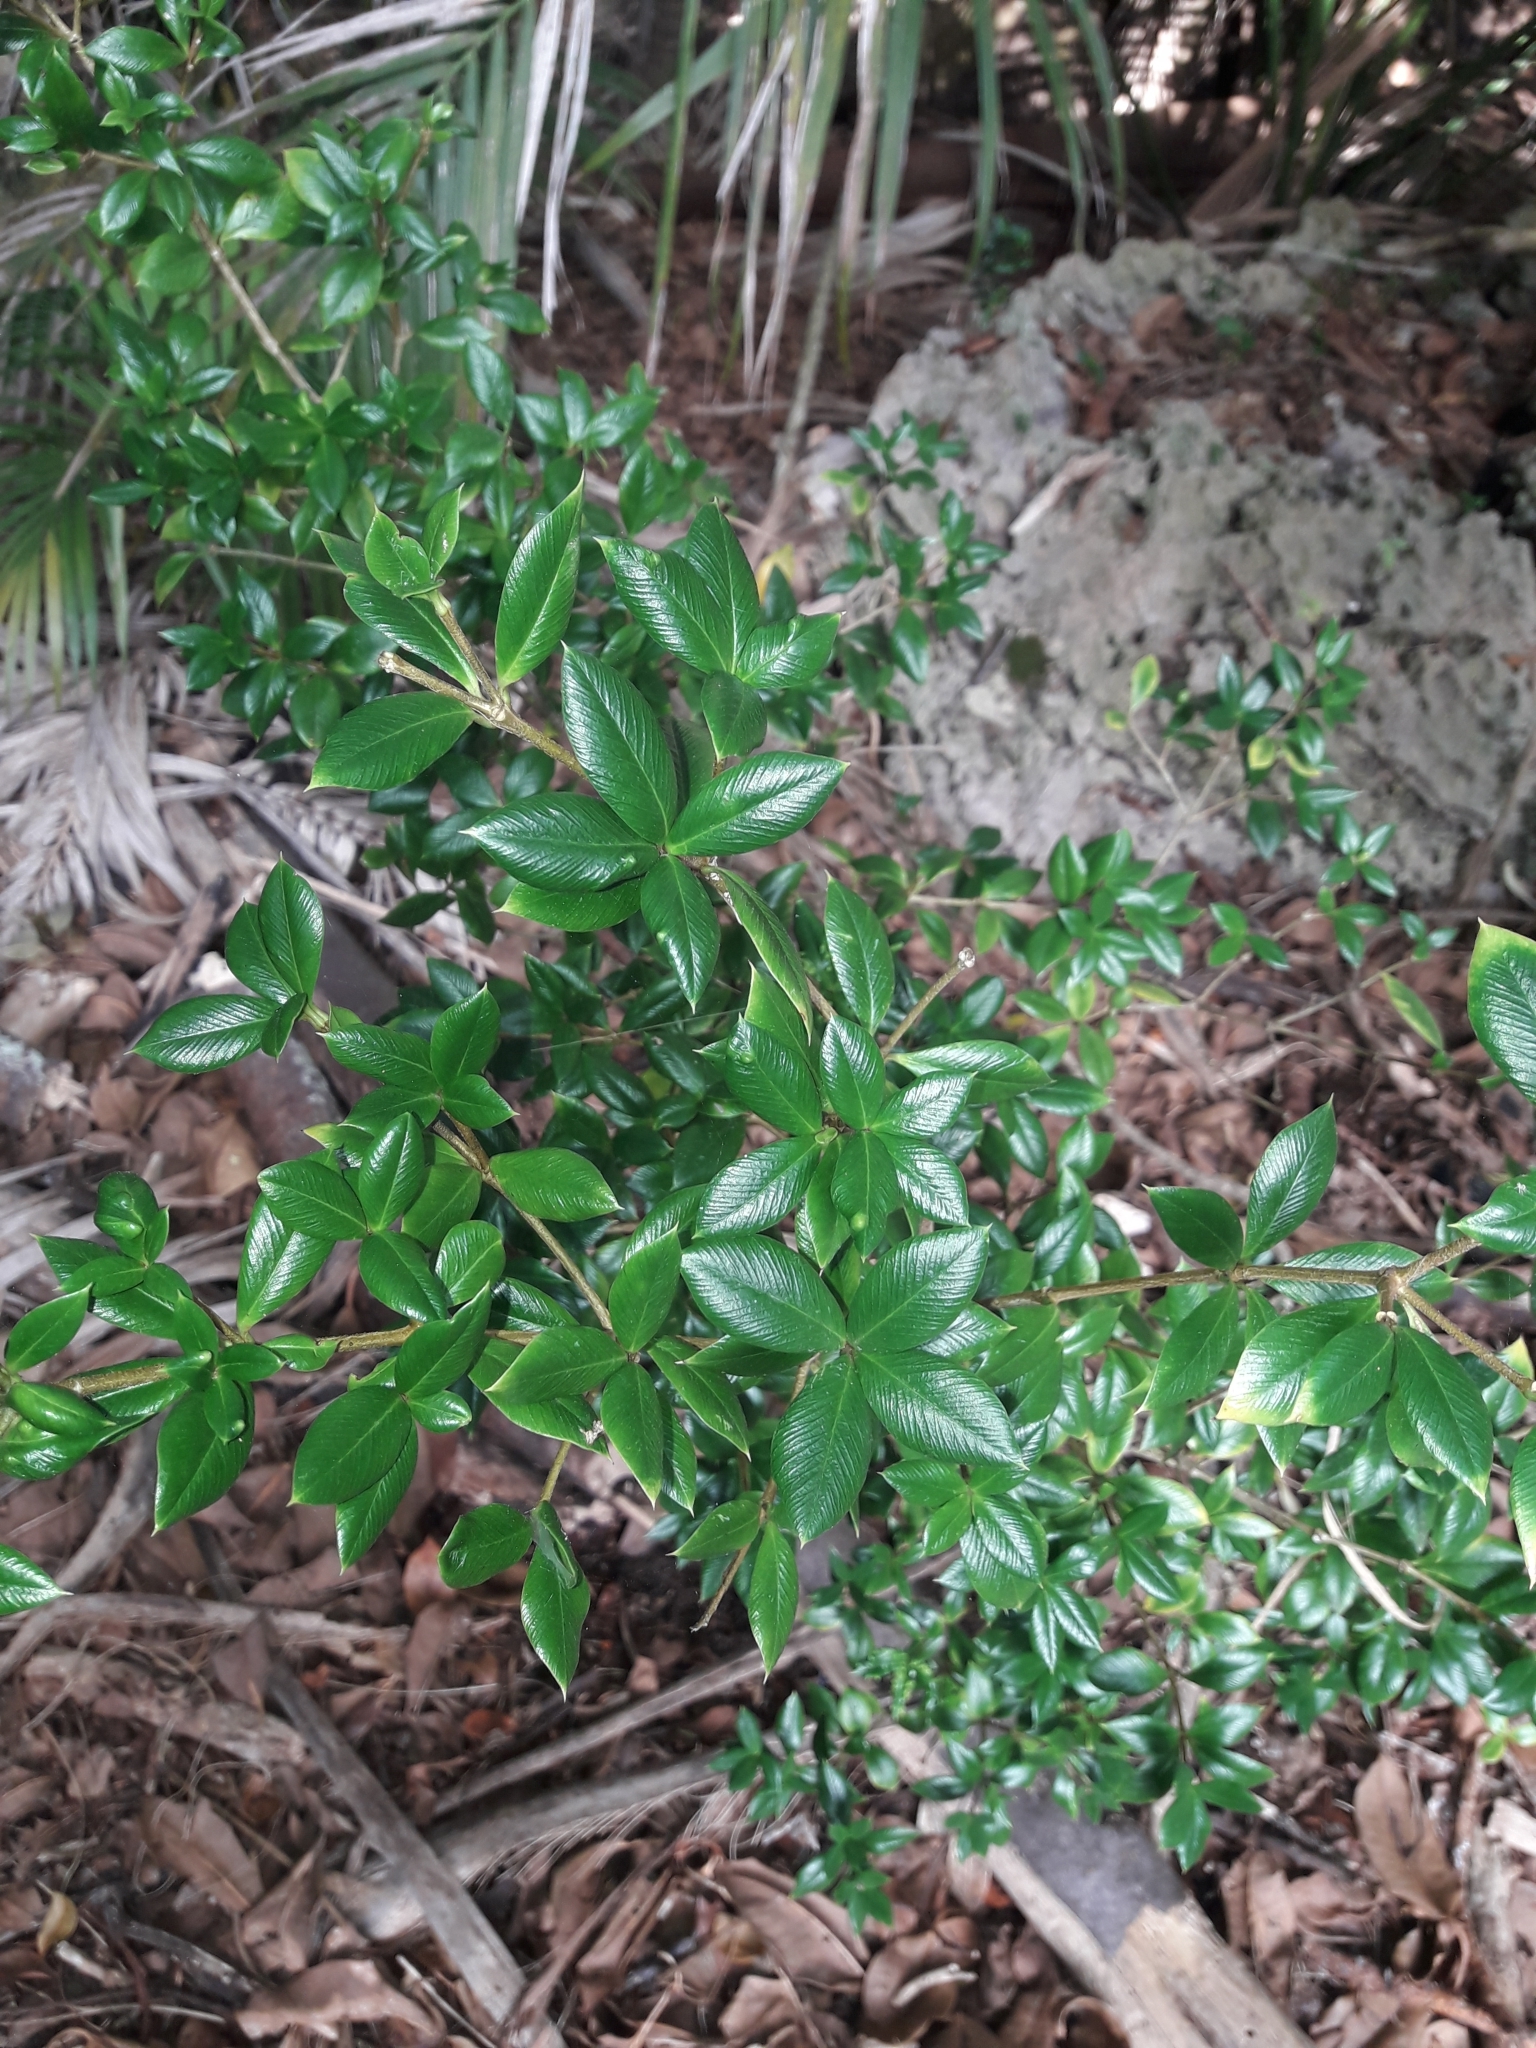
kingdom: Plantae
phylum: Tracheophyta
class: Magnoliopsida
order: Gentianales
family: Apocynaceae
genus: Alyxia
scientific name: Alyxia ruscifolia
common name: Chainfruit
